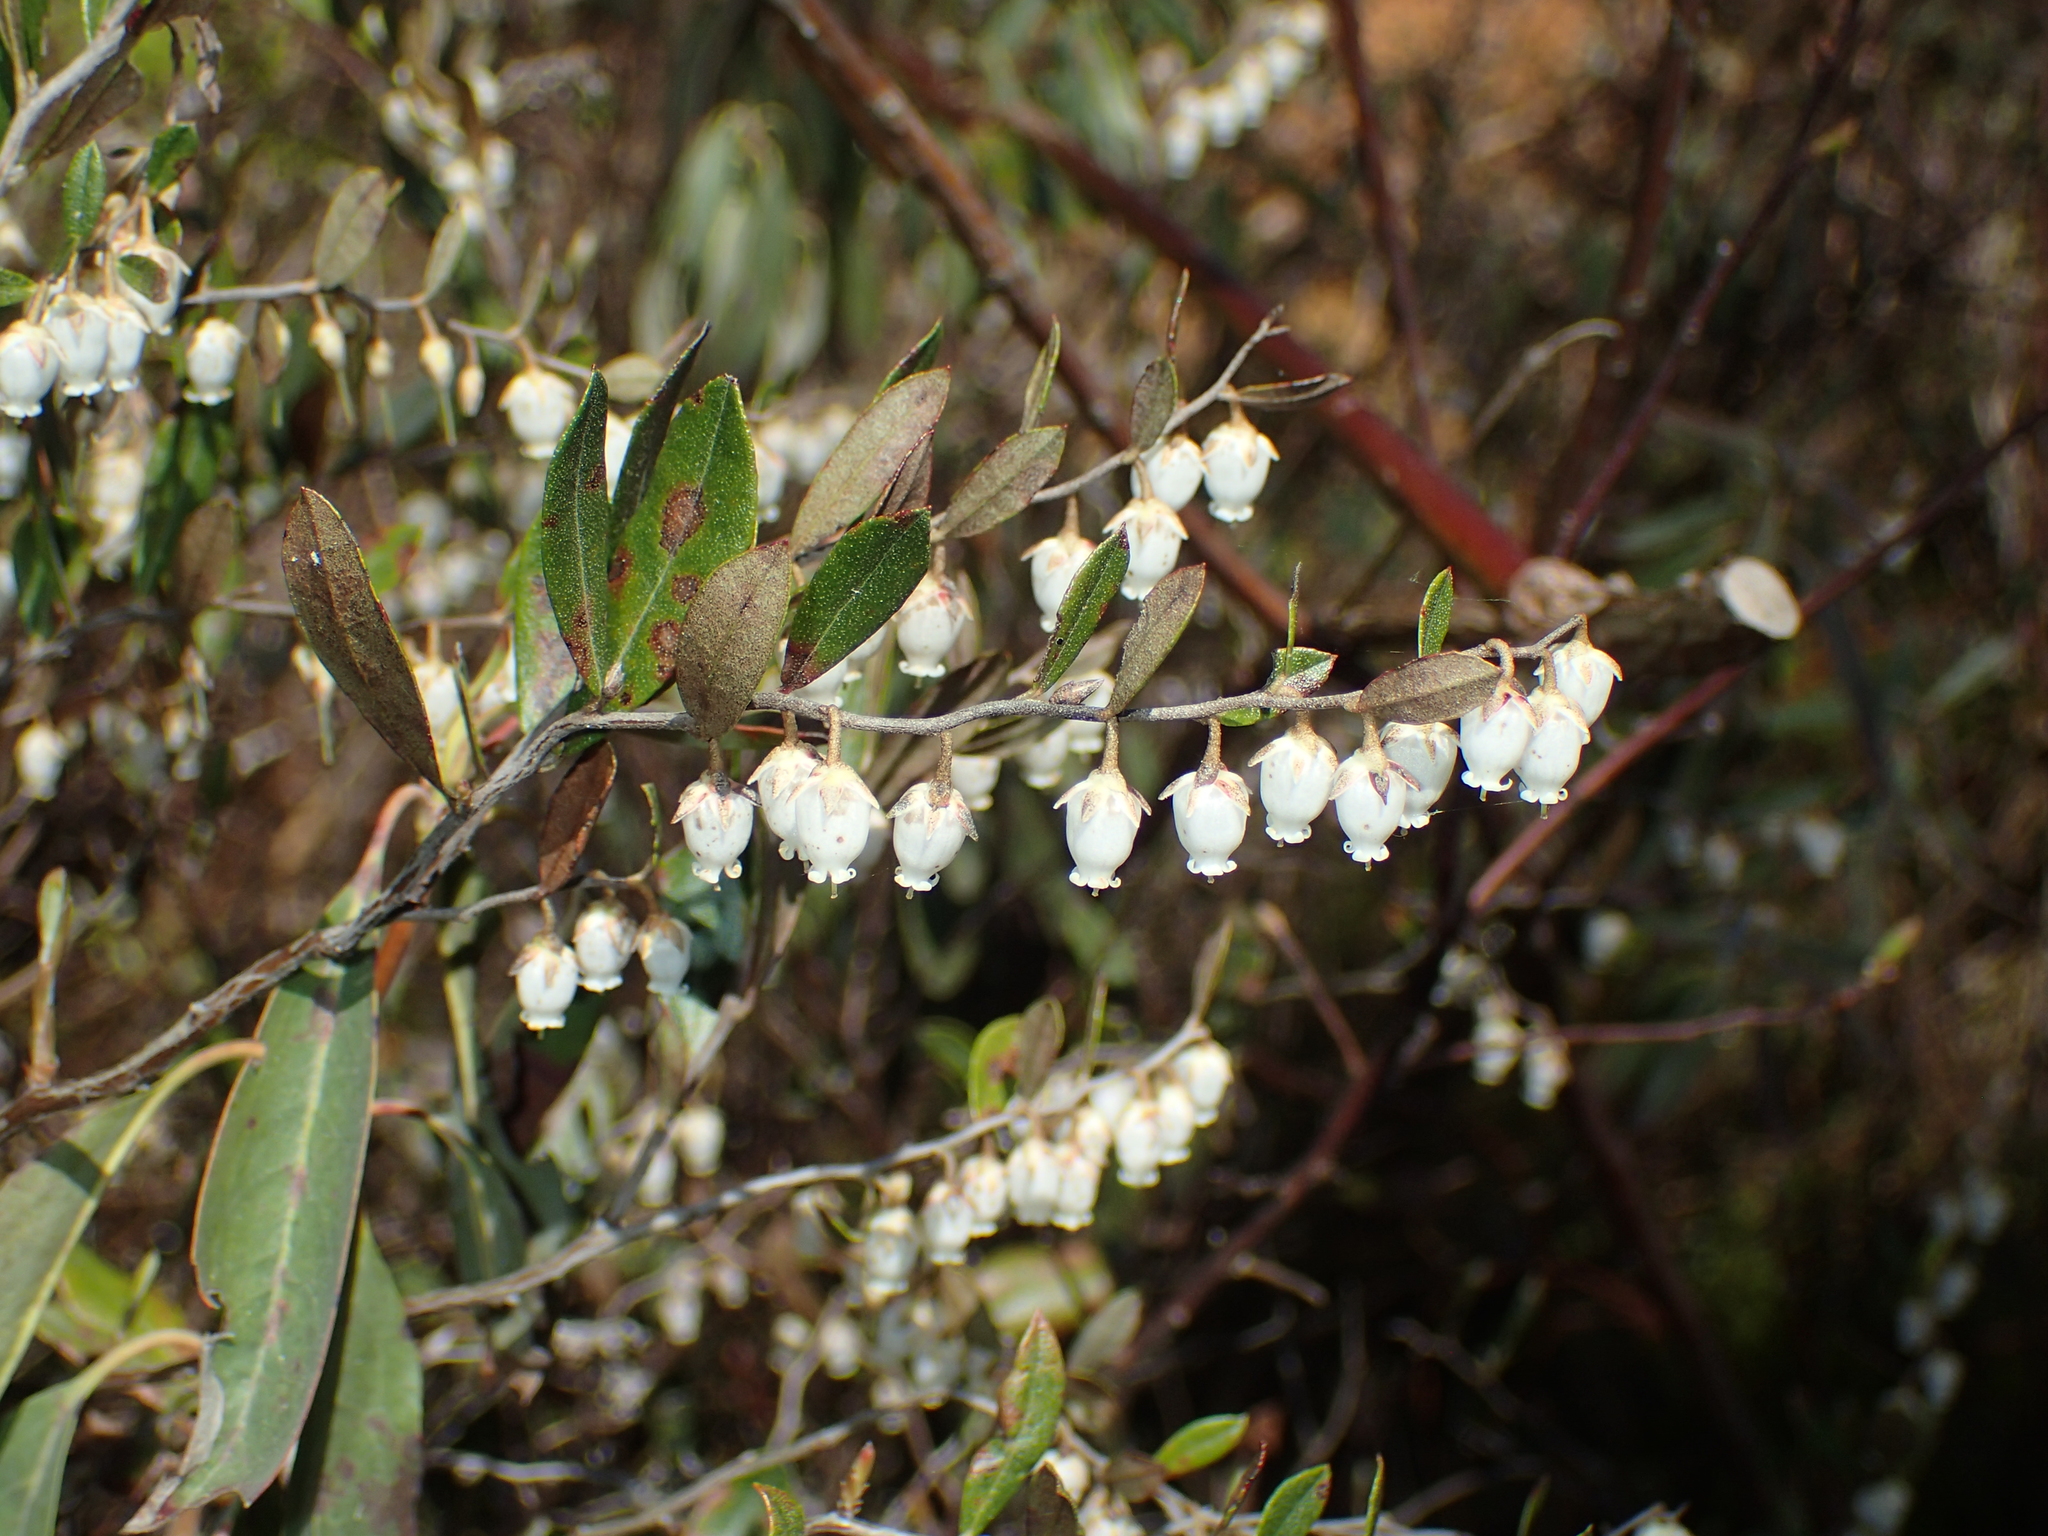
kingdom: Plantae
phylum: Tracheophyta
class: Magnoliopsida
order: Ericales
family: Ericaceae
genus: Chamaedaphne
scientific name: Chamaedaphne calyculata
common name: Leatherleaf
